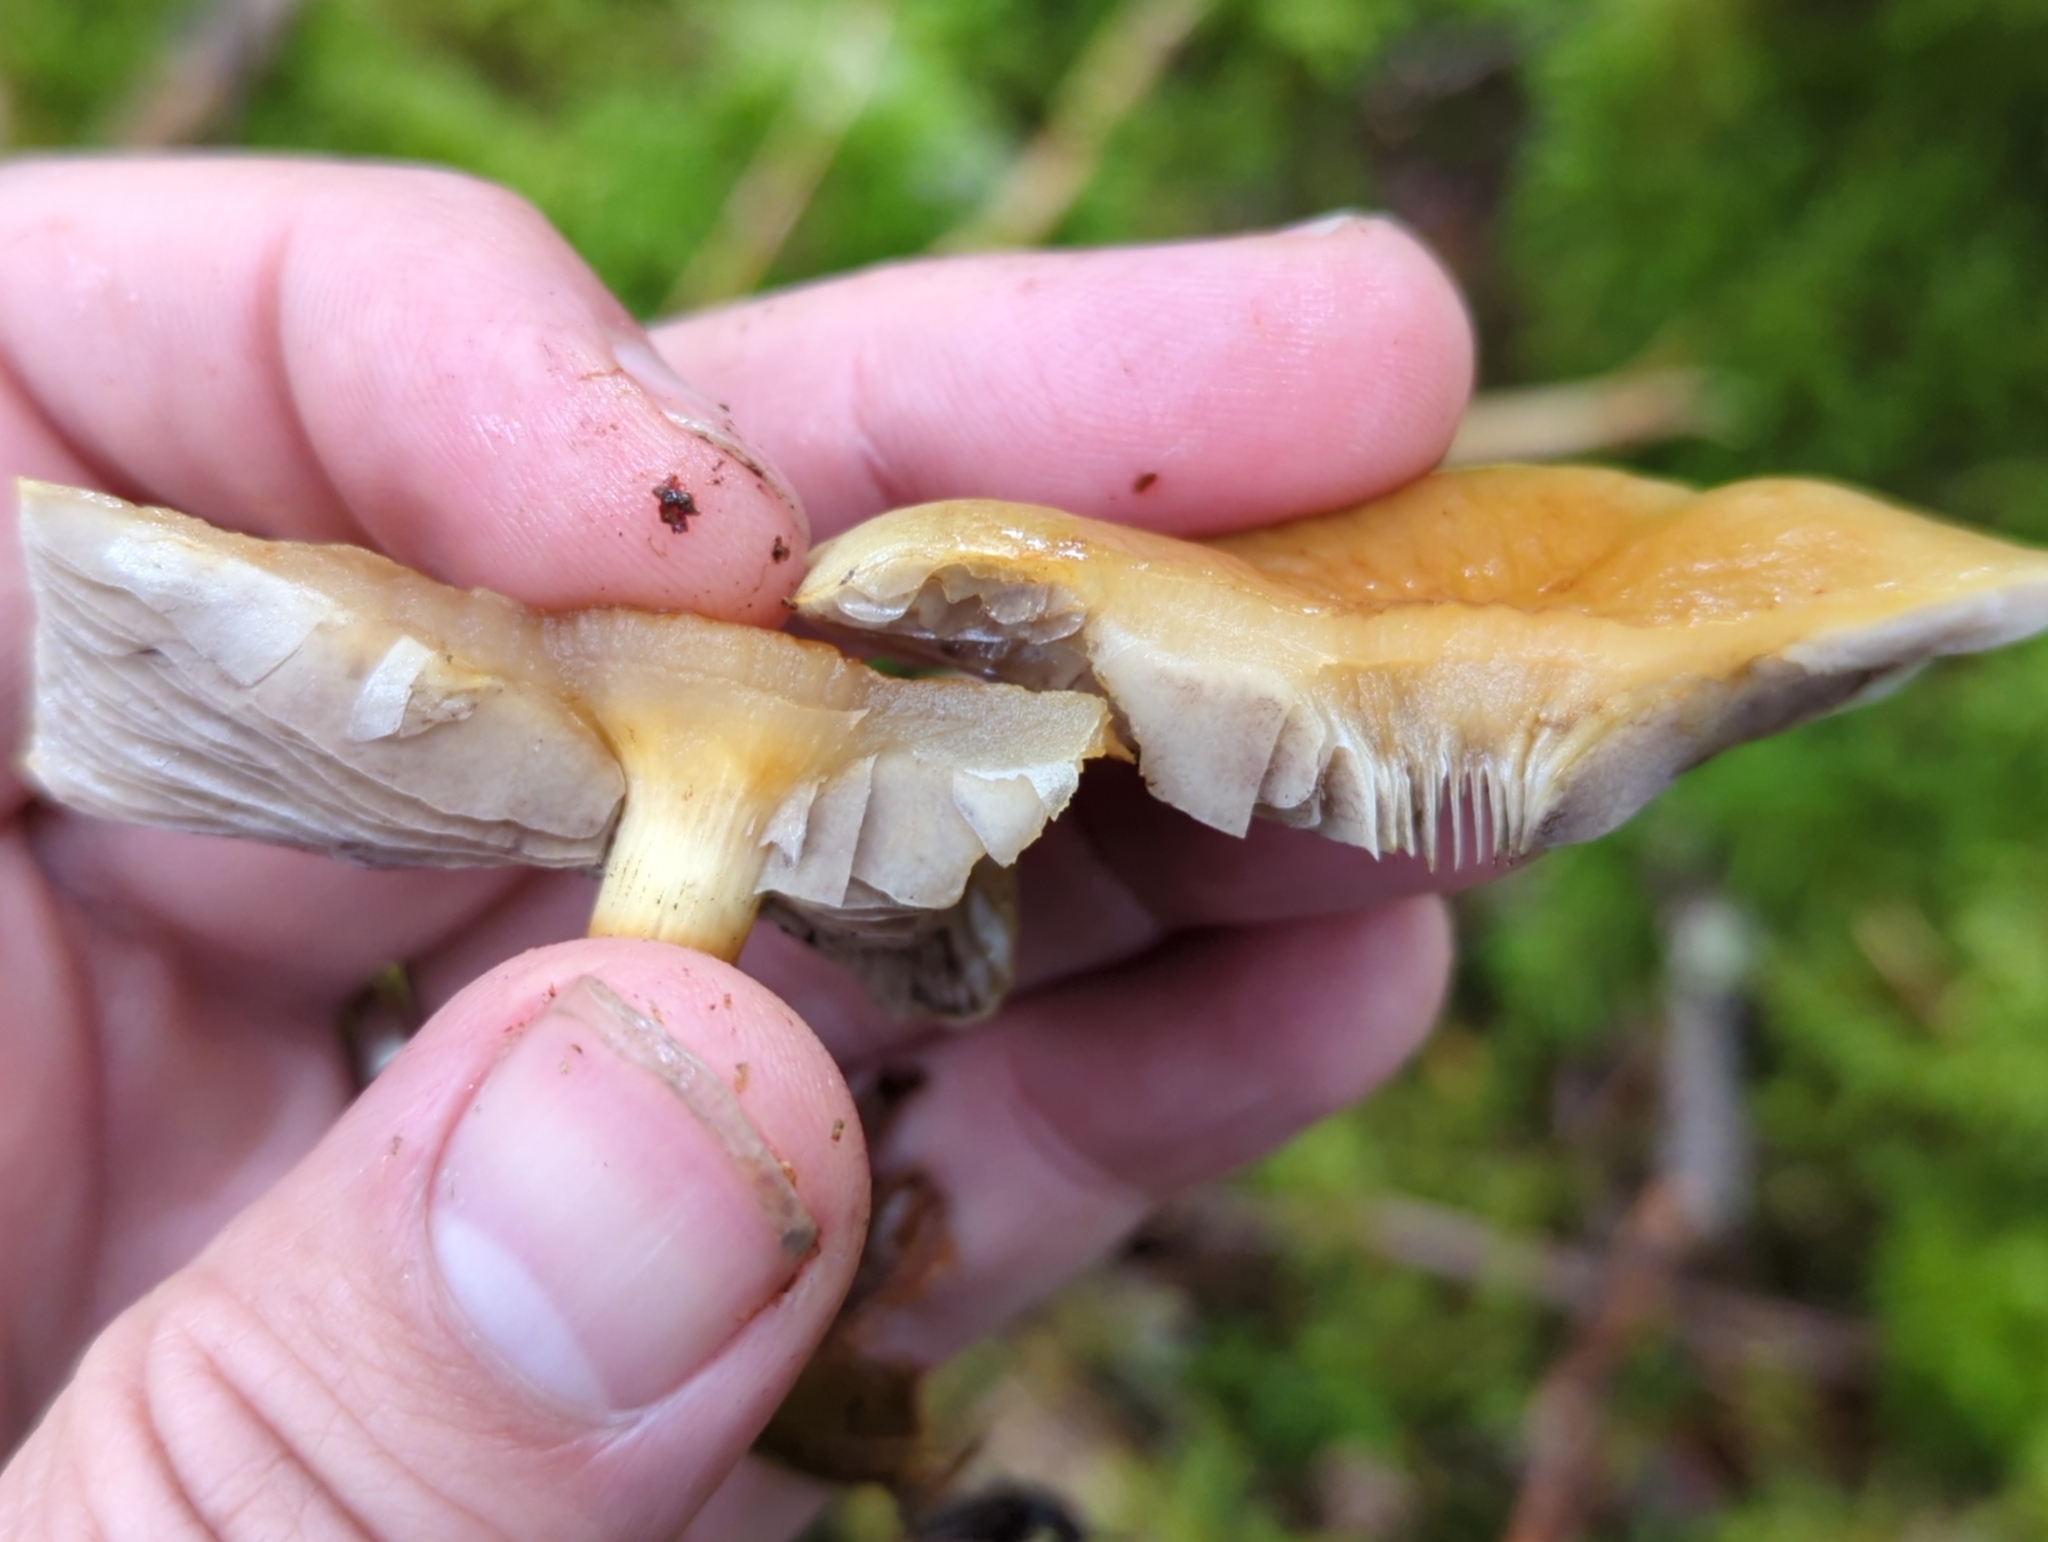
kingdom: Fungi
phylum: Basidiomycota
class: Agaricomycetes
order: Agaricales
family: Strophariaceae
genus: Hypholoma
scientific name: Hypholoma capnoides
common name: Conifer tuft
